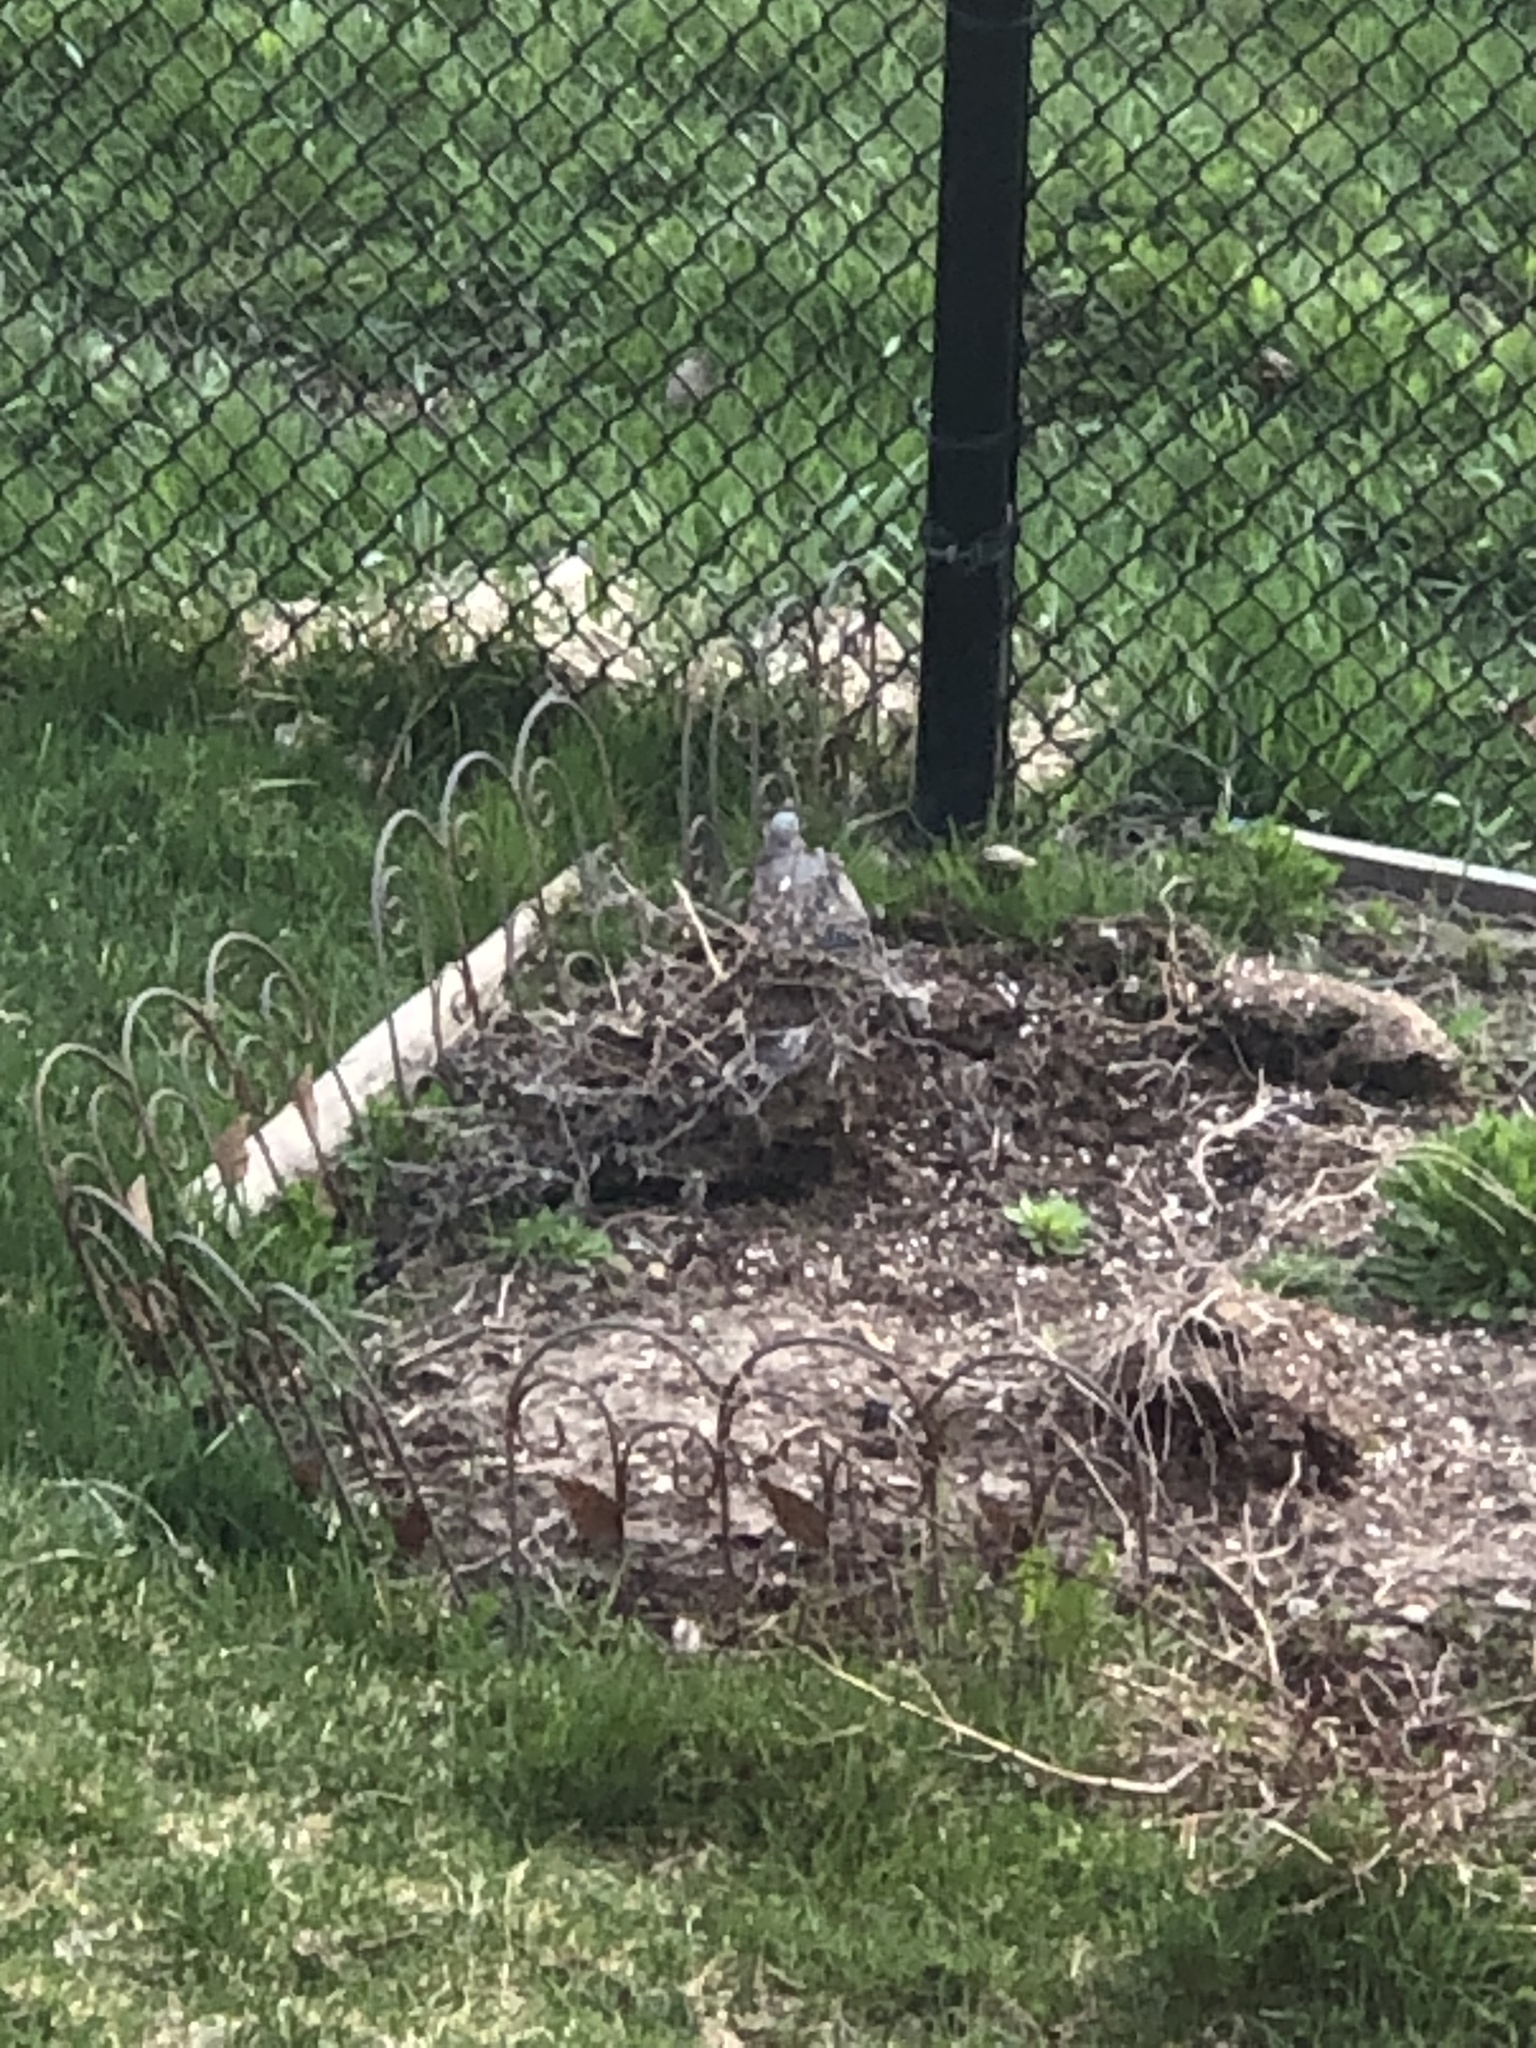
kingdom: Animalia
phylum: Chordata
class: Aves
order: Columbiformes
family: Columbidae
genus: Zenaida
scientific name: Zenaida macroura
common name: Mourning dove
